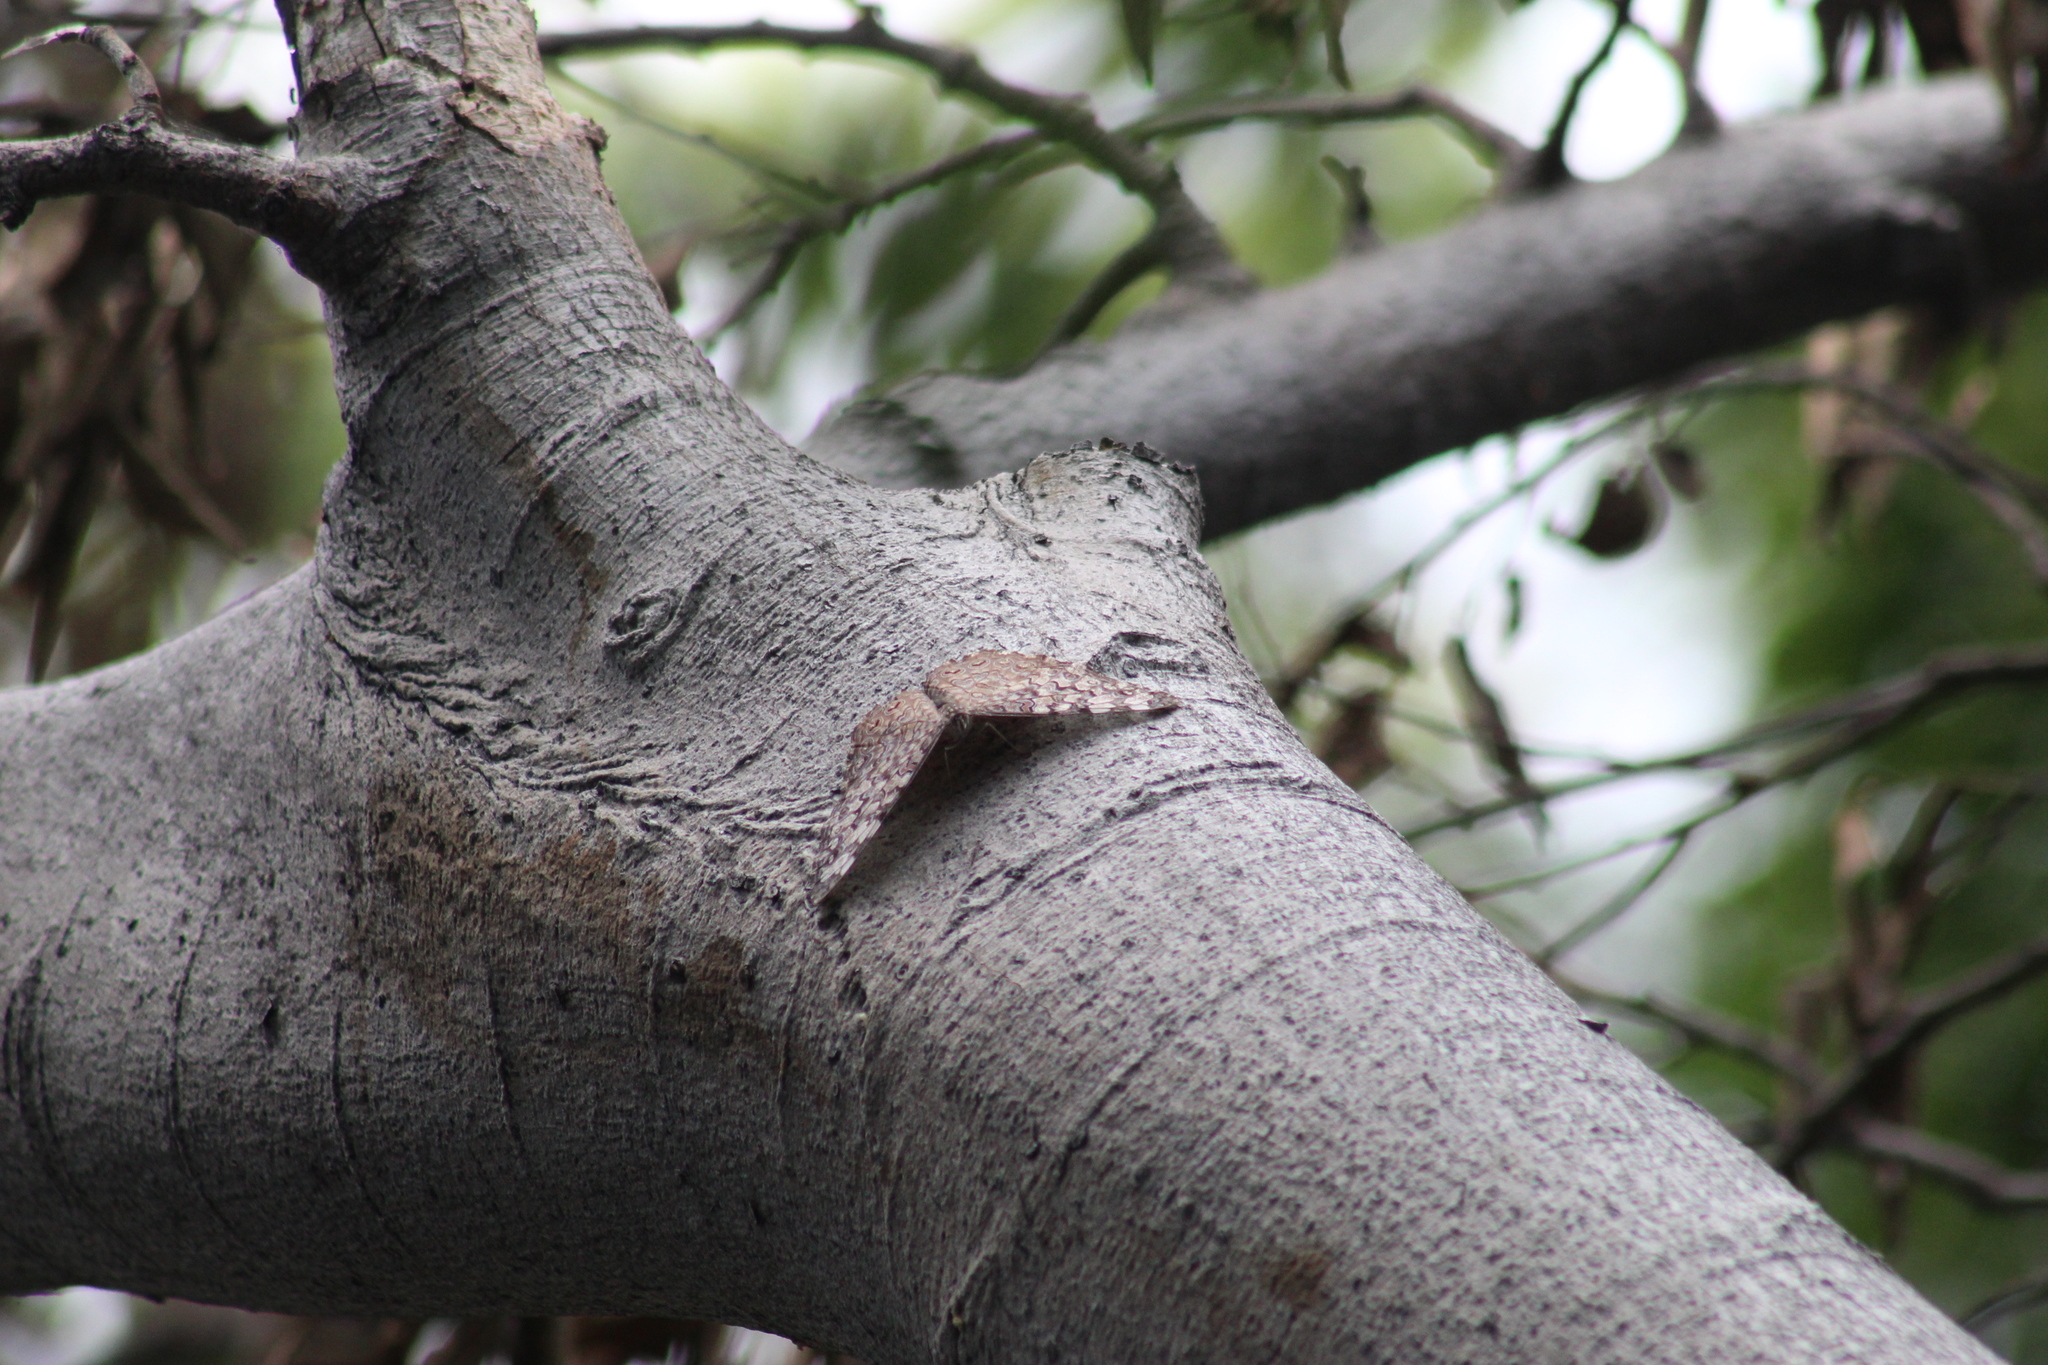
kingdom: Animalia
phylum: Arthropoda
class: Insecta
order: Lepidoptera
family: Nymphalidae
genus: Hamadryas
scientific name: Hamadryas februa
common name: Gray cracker
